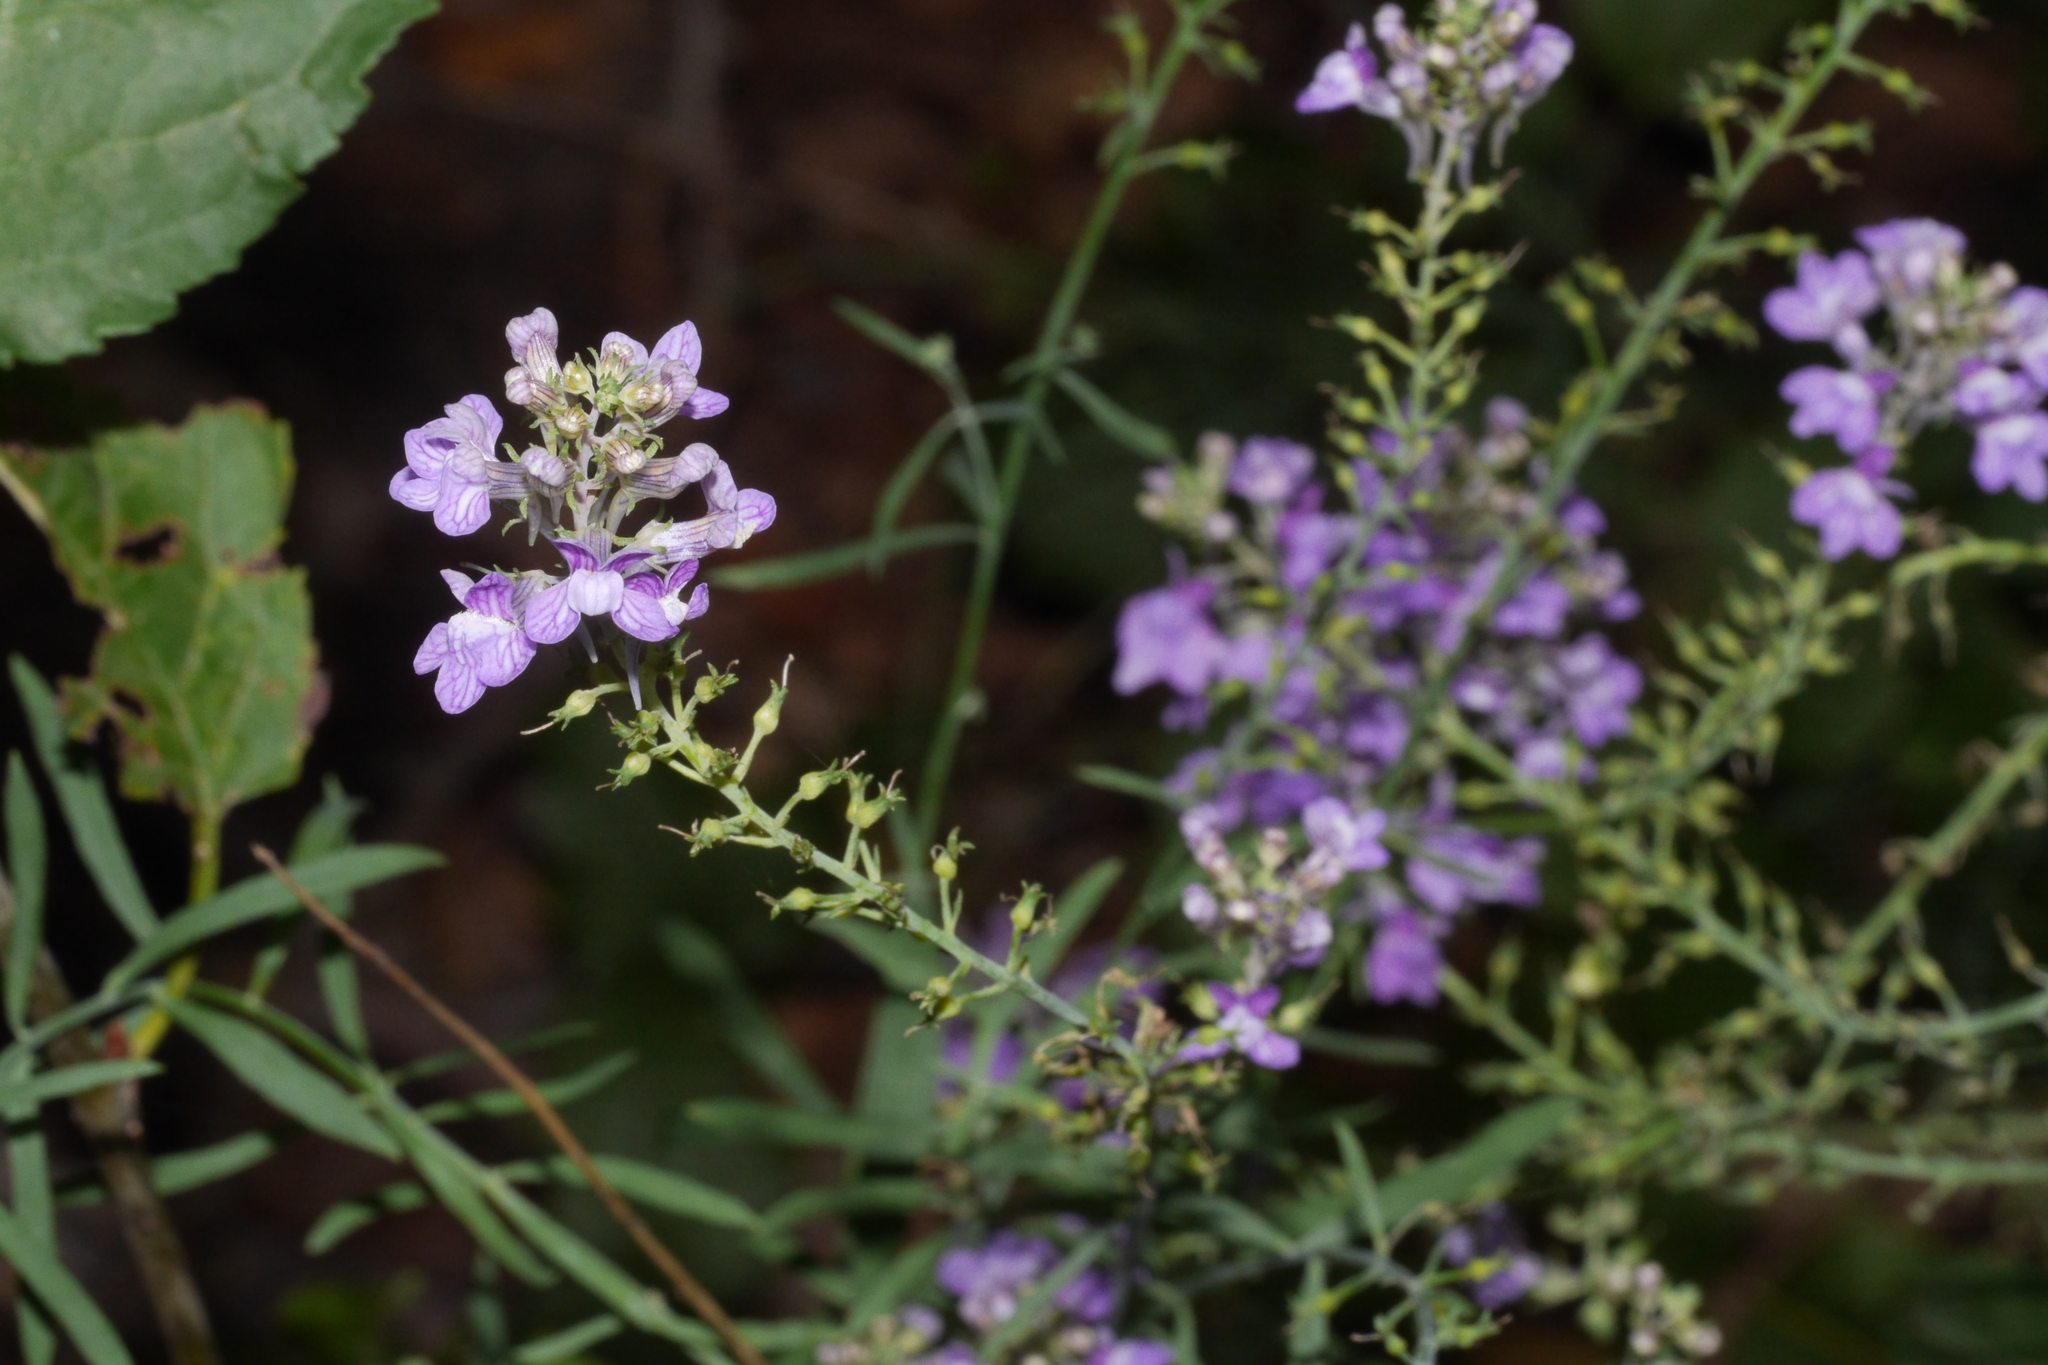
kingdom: Plantae
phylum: Tracheophyta
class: Magnoliopsida
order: Lamiales
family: Plantaginaceae
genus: Linaria
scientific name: Linaria purpurea
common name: Purple toadflax
